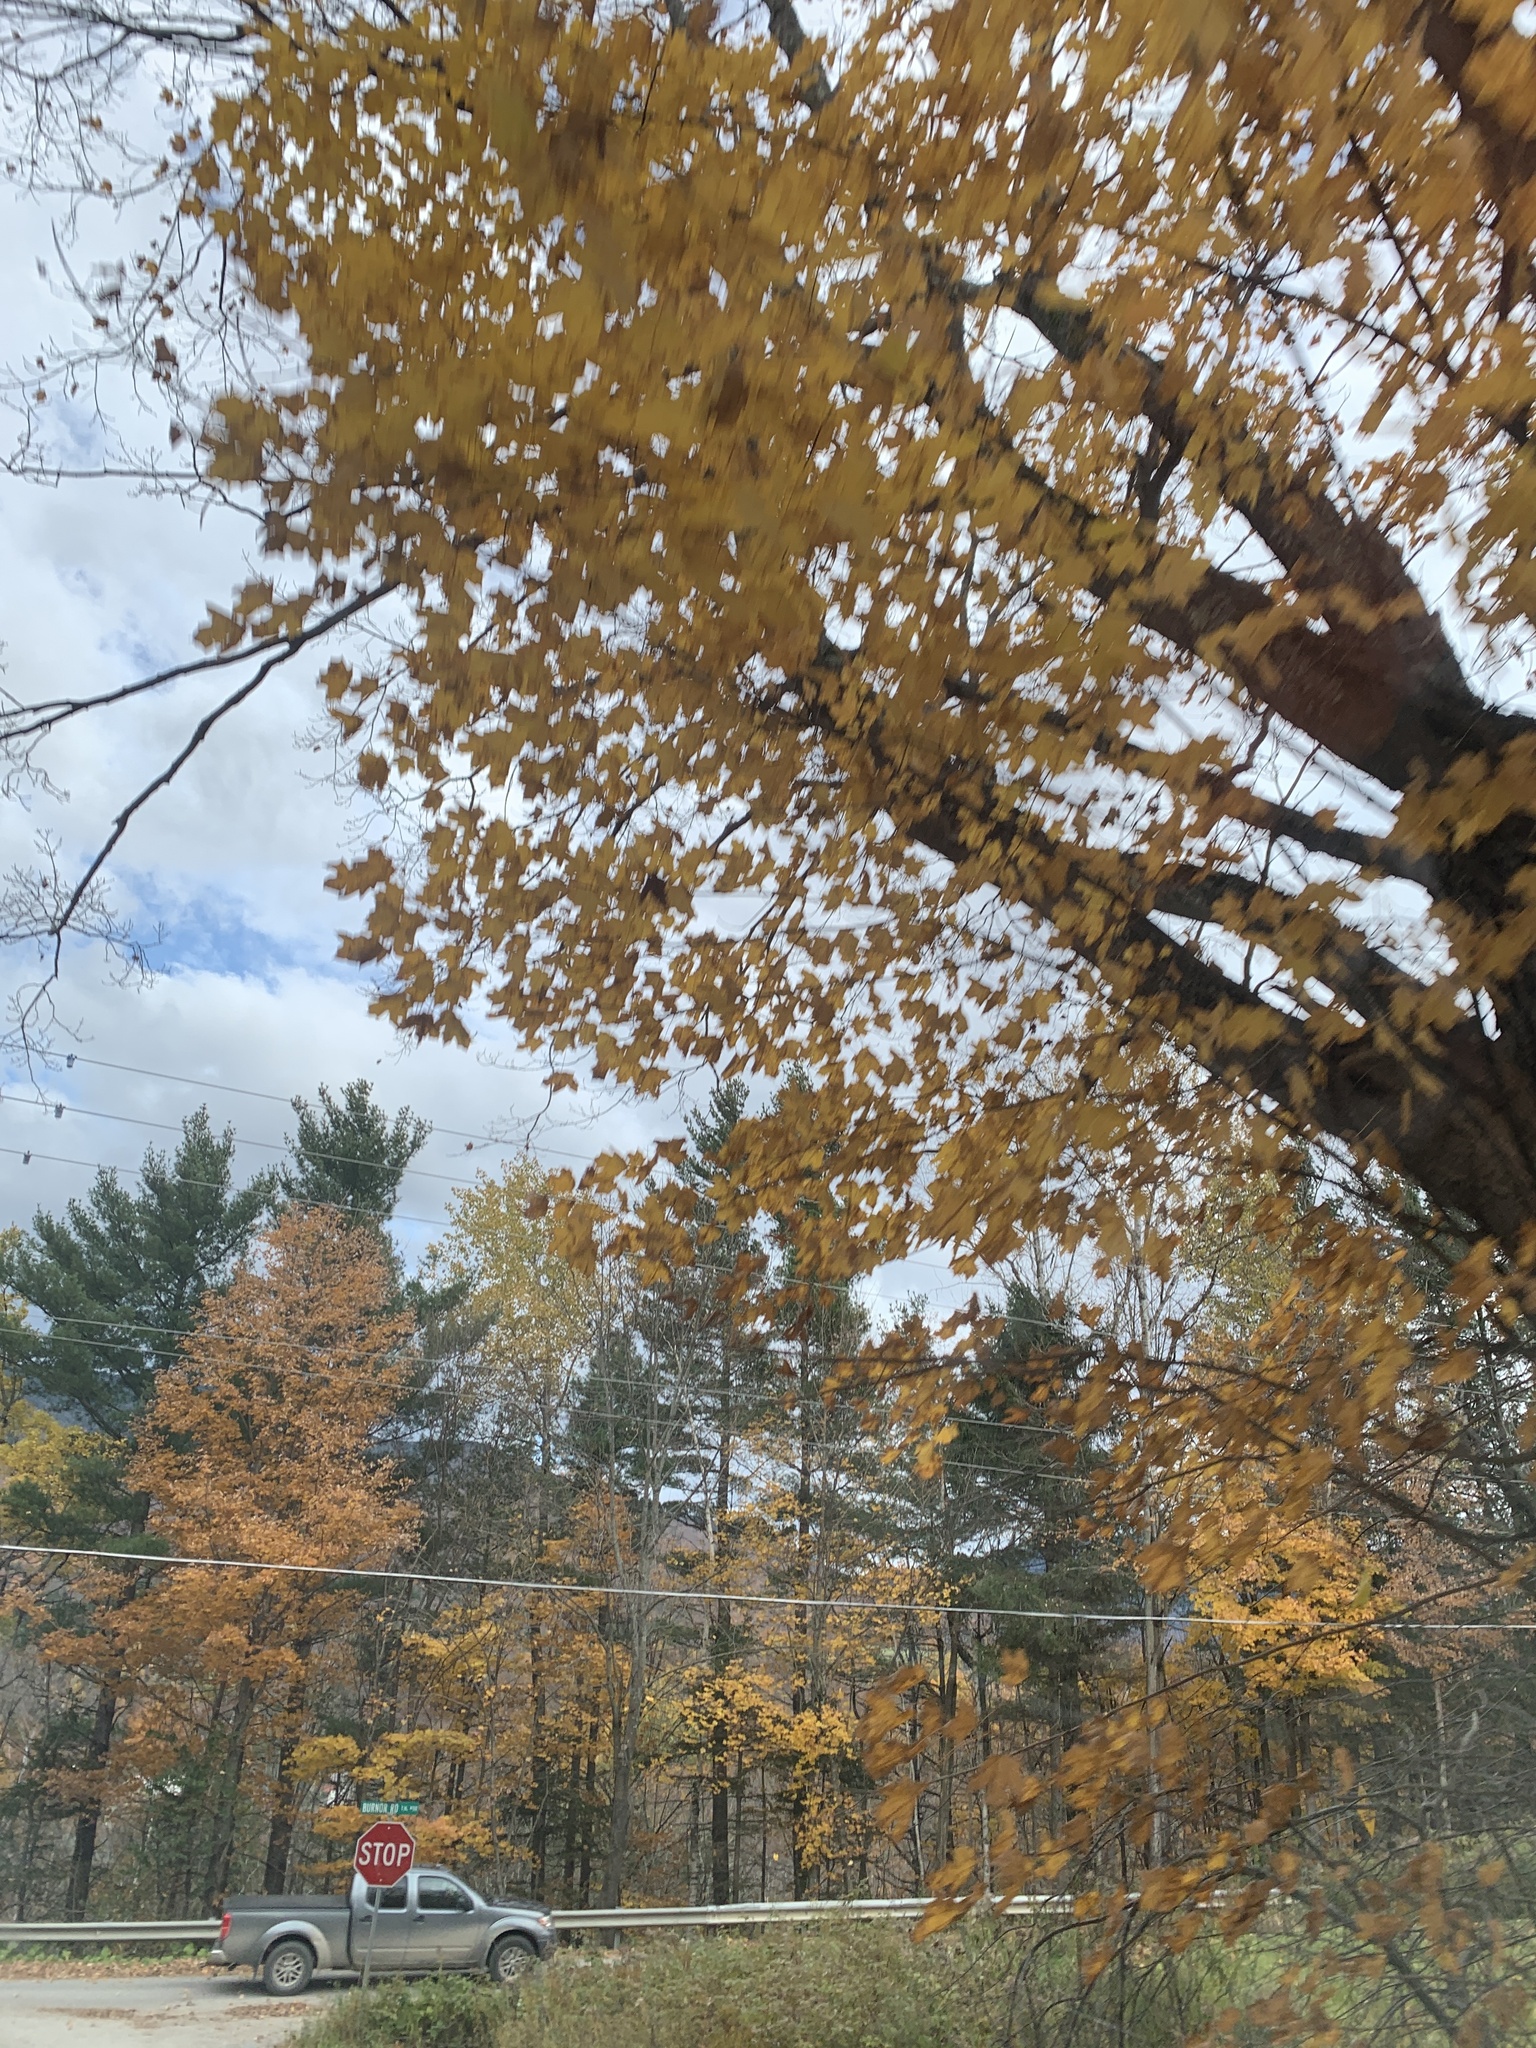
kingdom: Plantae
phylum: Tracheophyta
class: Magnoliopsida
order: Sapindales
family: Sapindaceae
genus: Acer
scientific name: Acer saccharum
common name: Sugar maple
